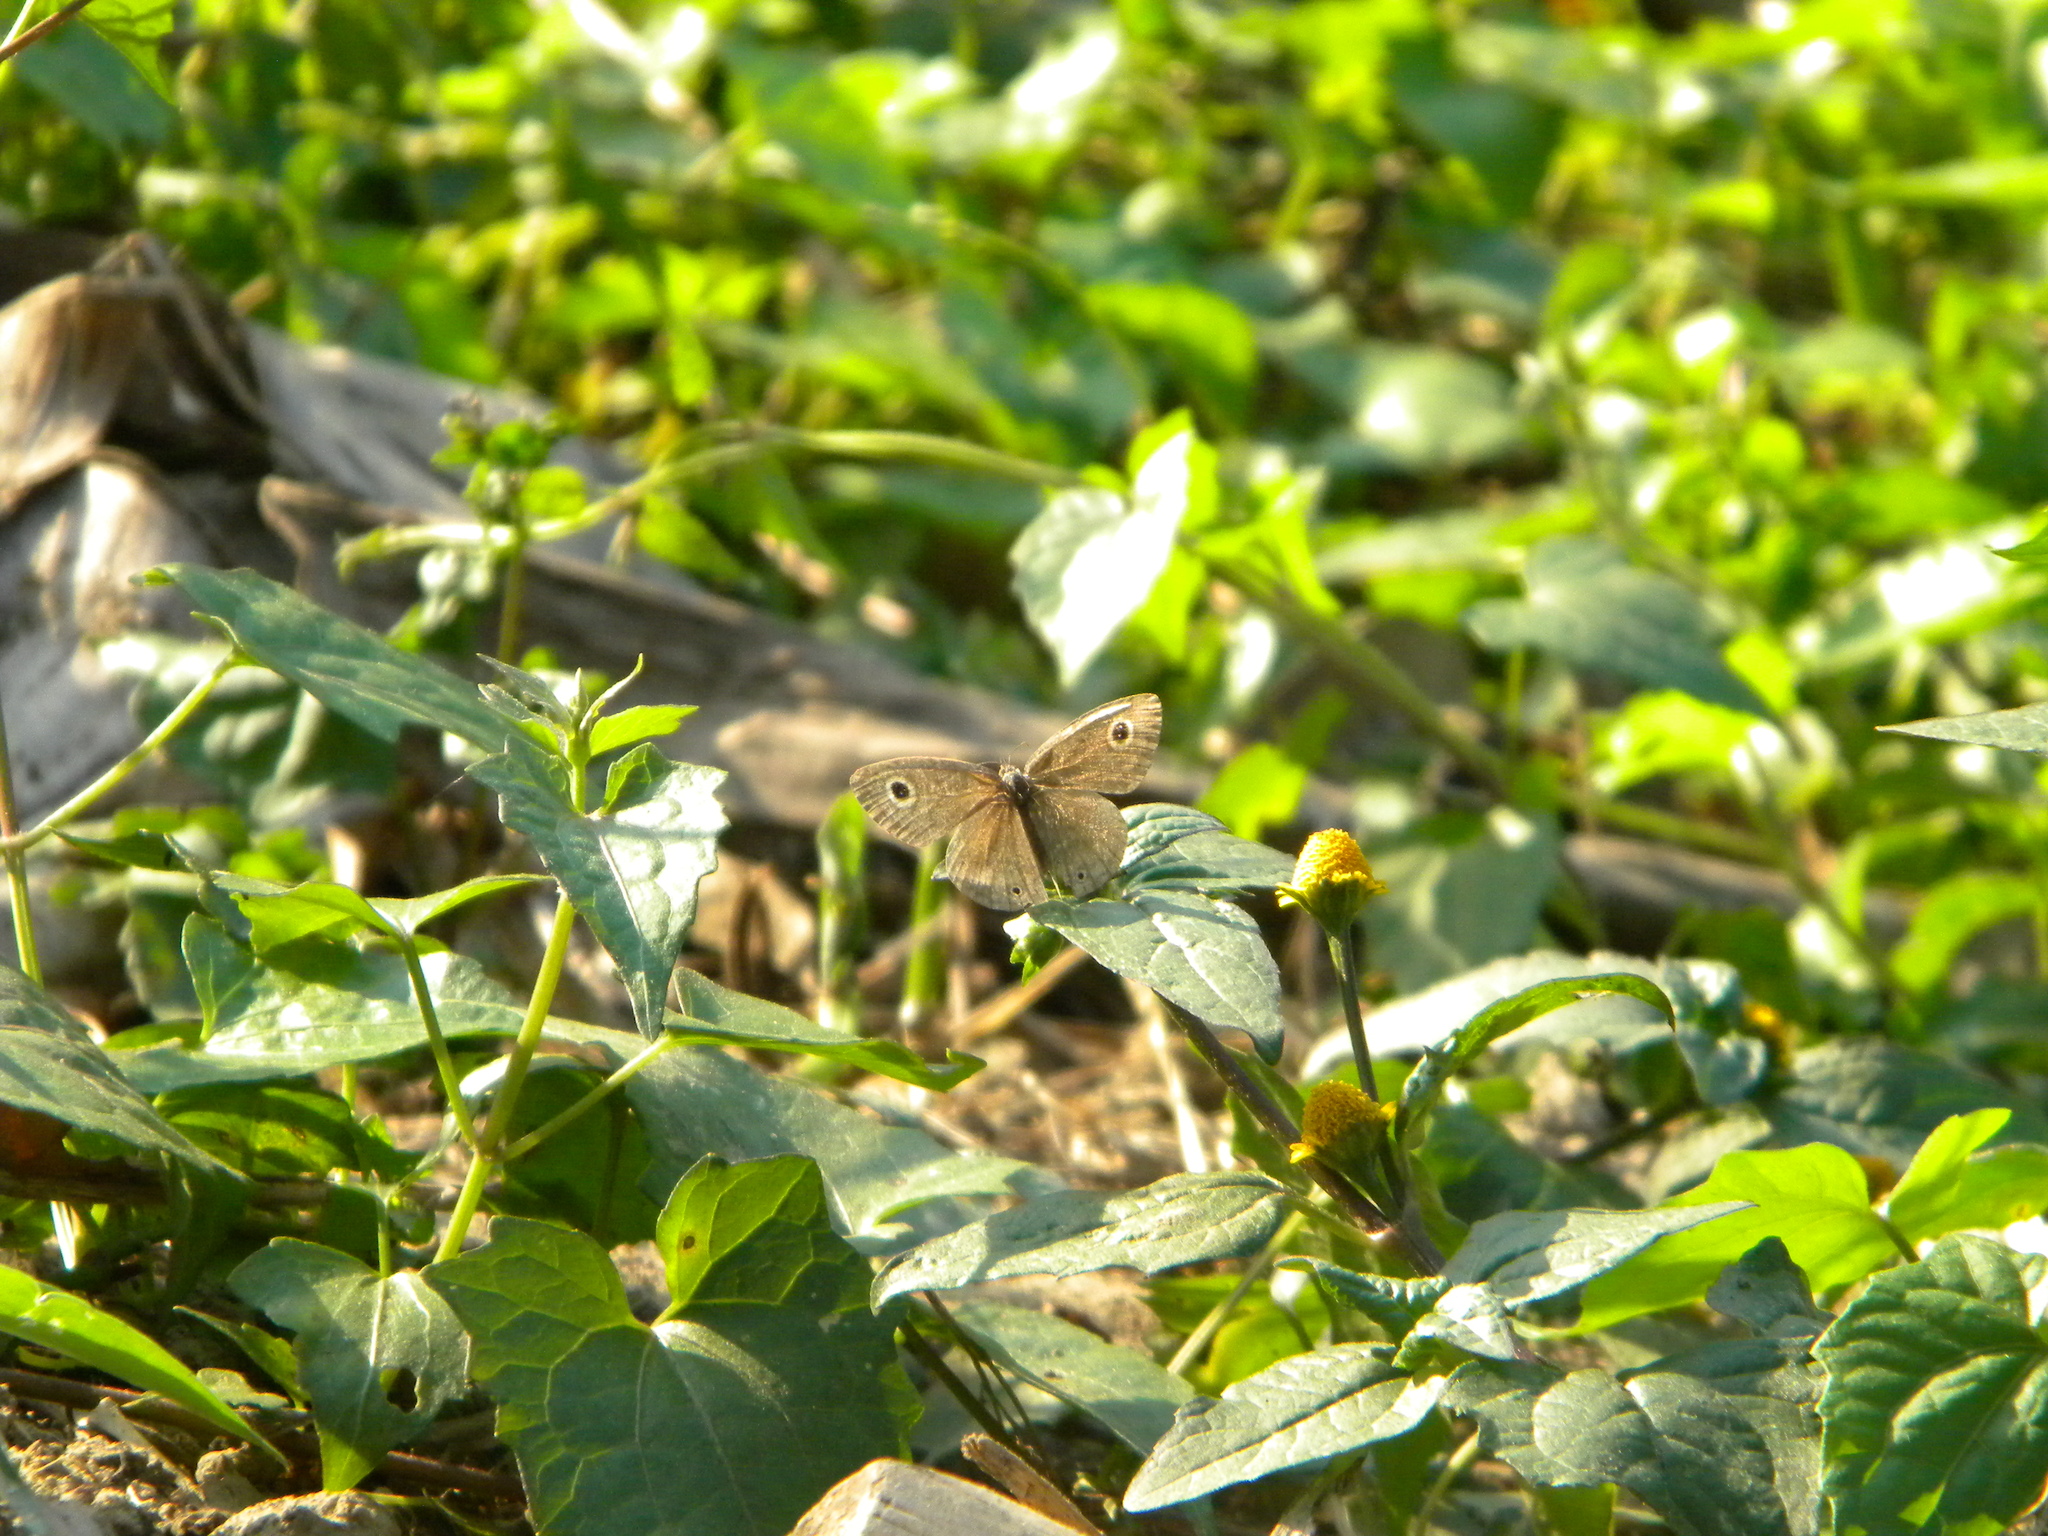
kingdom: Animalia
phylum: Arthropoda
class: Insecta
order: Lepidoptera
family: Nymphalidae
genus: Ypthima
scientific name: Ypthima asterope
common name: African ringlet
